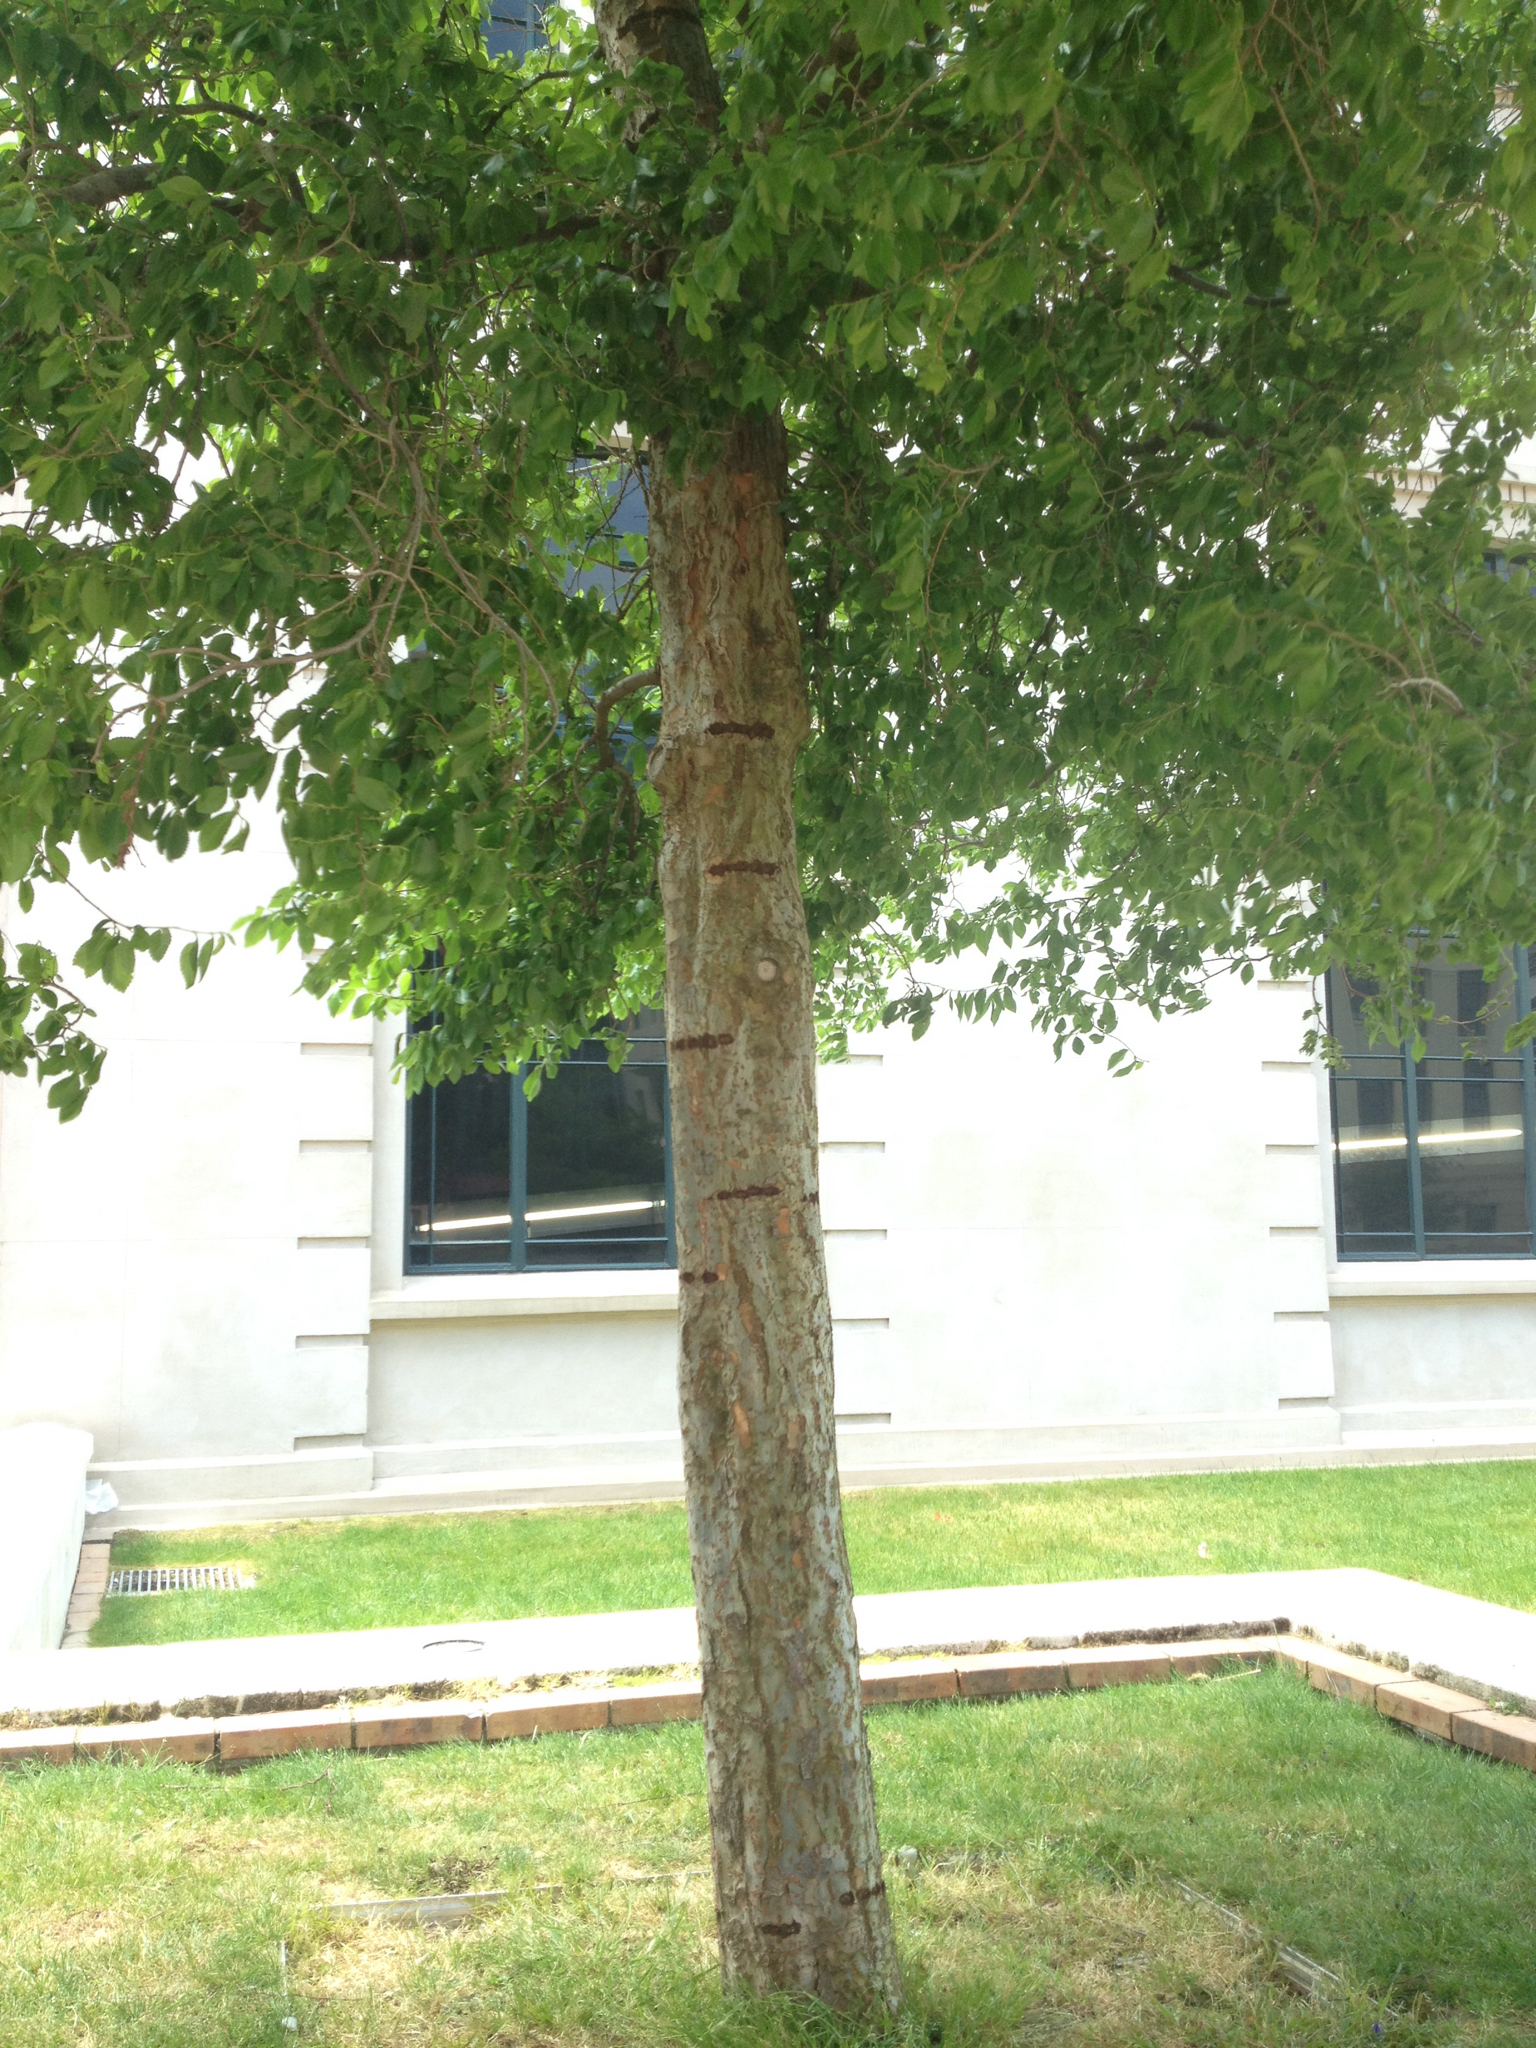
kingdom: Animalia
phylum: Chordata
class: Aves
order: Psittaciformes
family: Psittacidae
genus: Nestor
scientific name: Nestor meridionalis
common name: New zealand kaka
